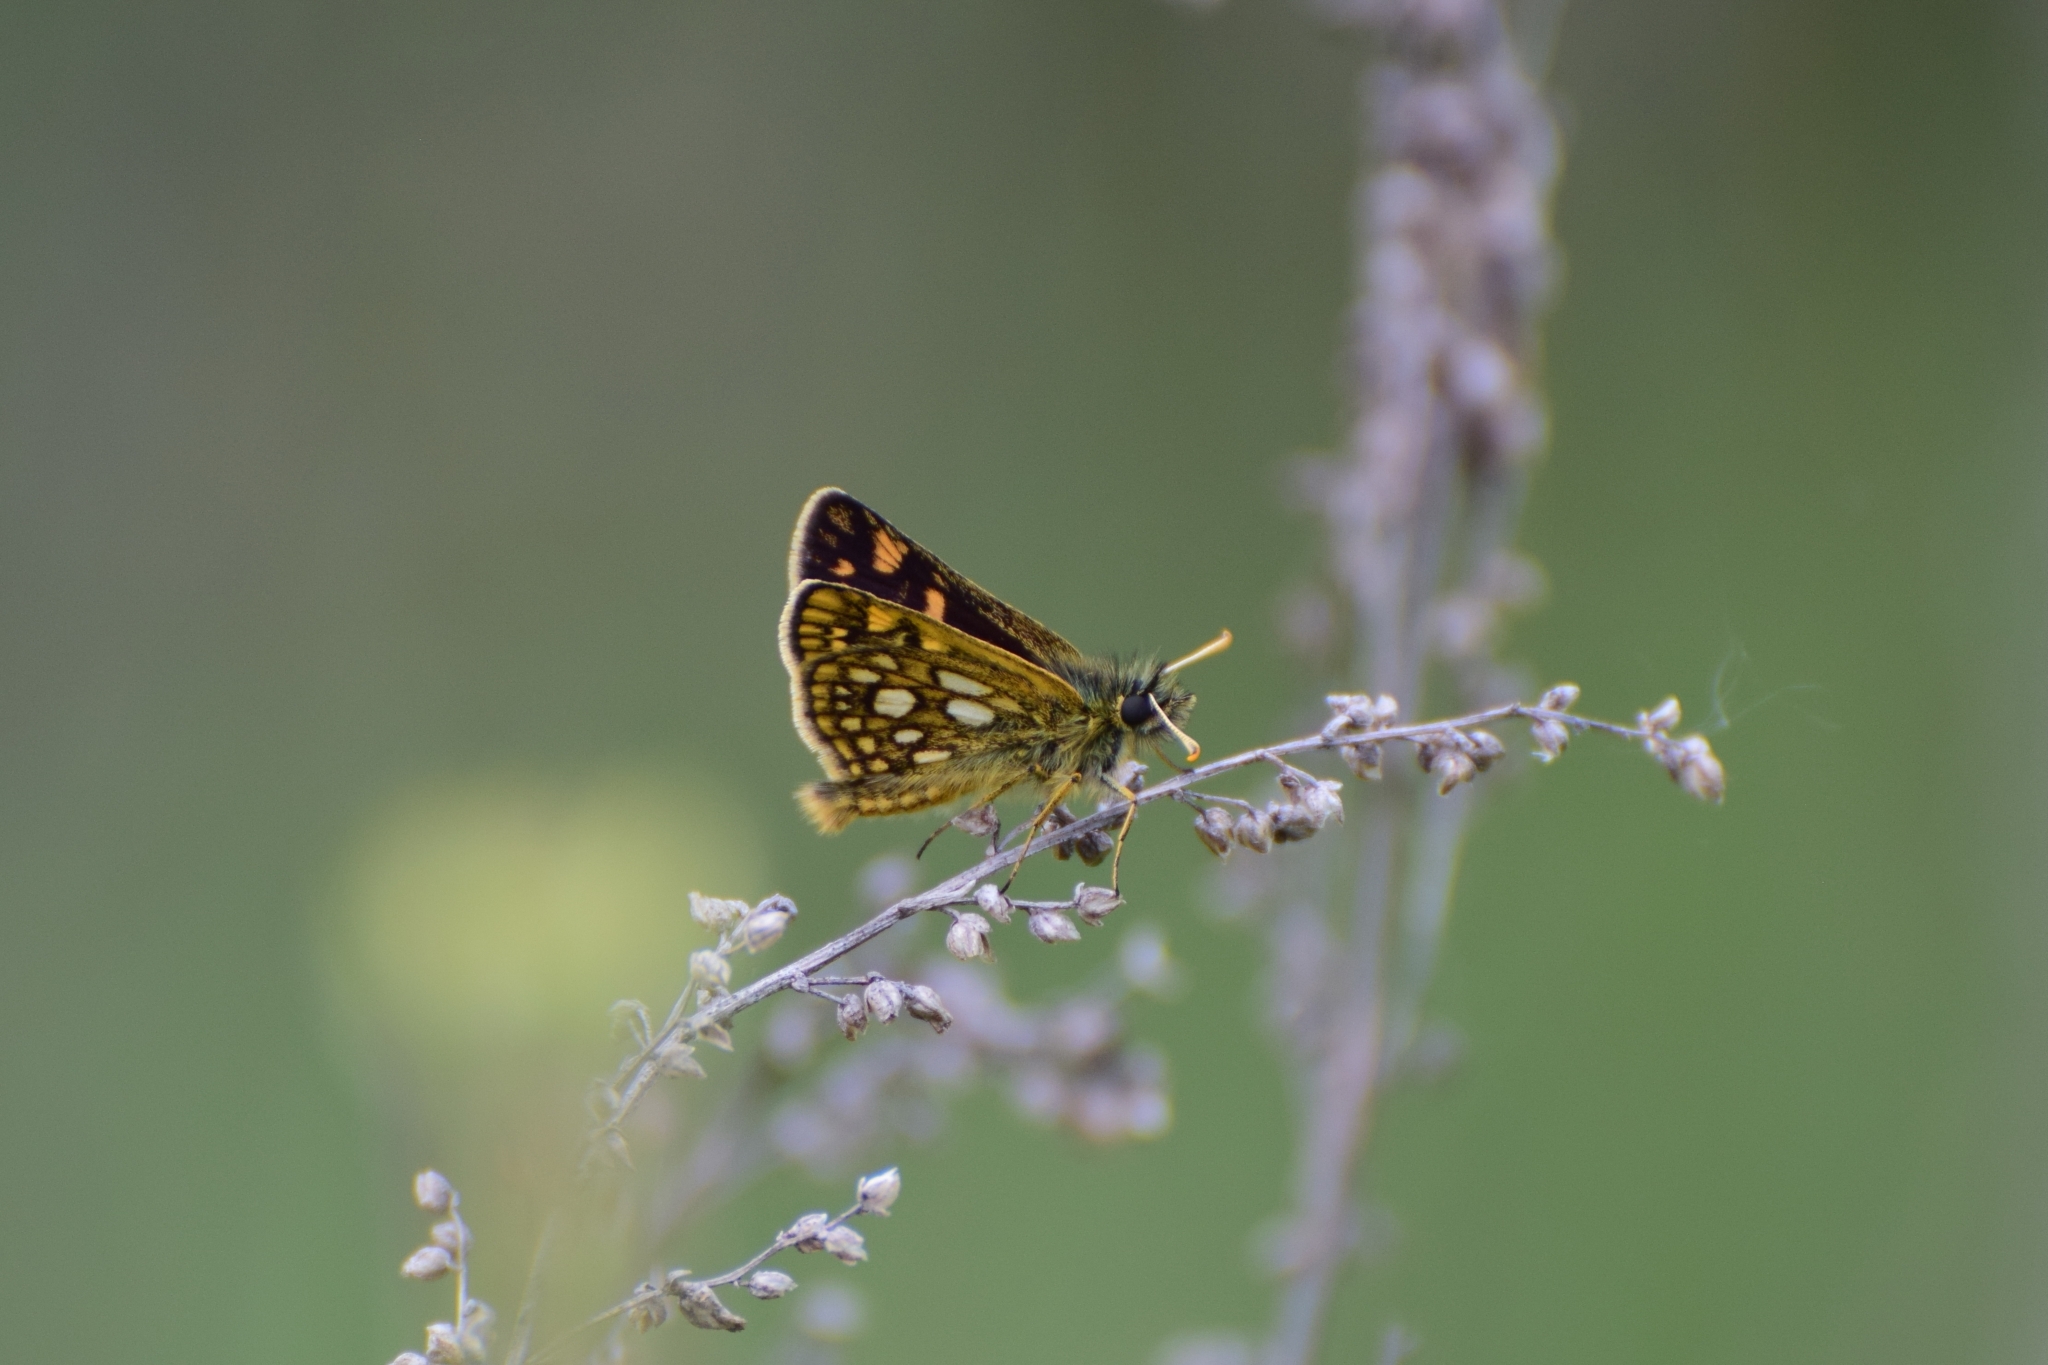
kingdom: Animalia
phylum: Arthropoda
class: Insecta
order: Lepidoptera
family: Hesperiidae
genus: Carterocephalus
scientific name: Carterocephalus palaemon
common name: Chequered skipper
